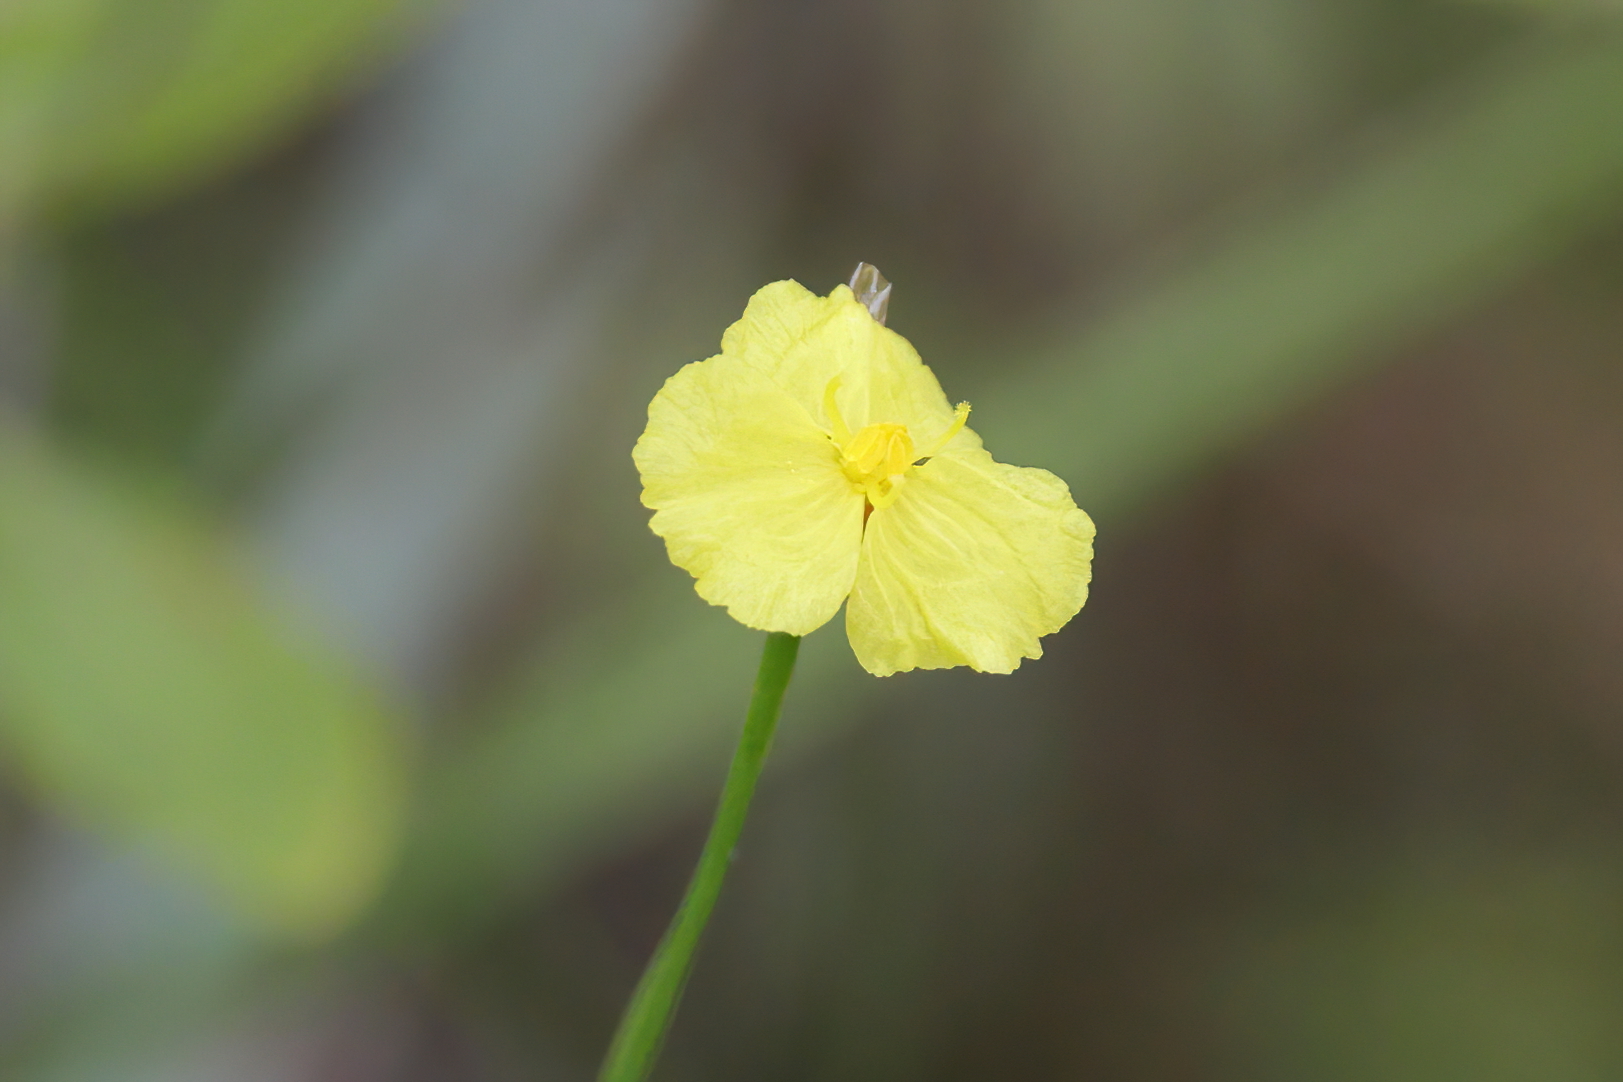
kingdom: Plantae
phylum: Tracheophyta
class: Liliopsida
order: Poales
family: Xyridaceae
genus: Xyris
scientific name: Xyris baldwiniana
